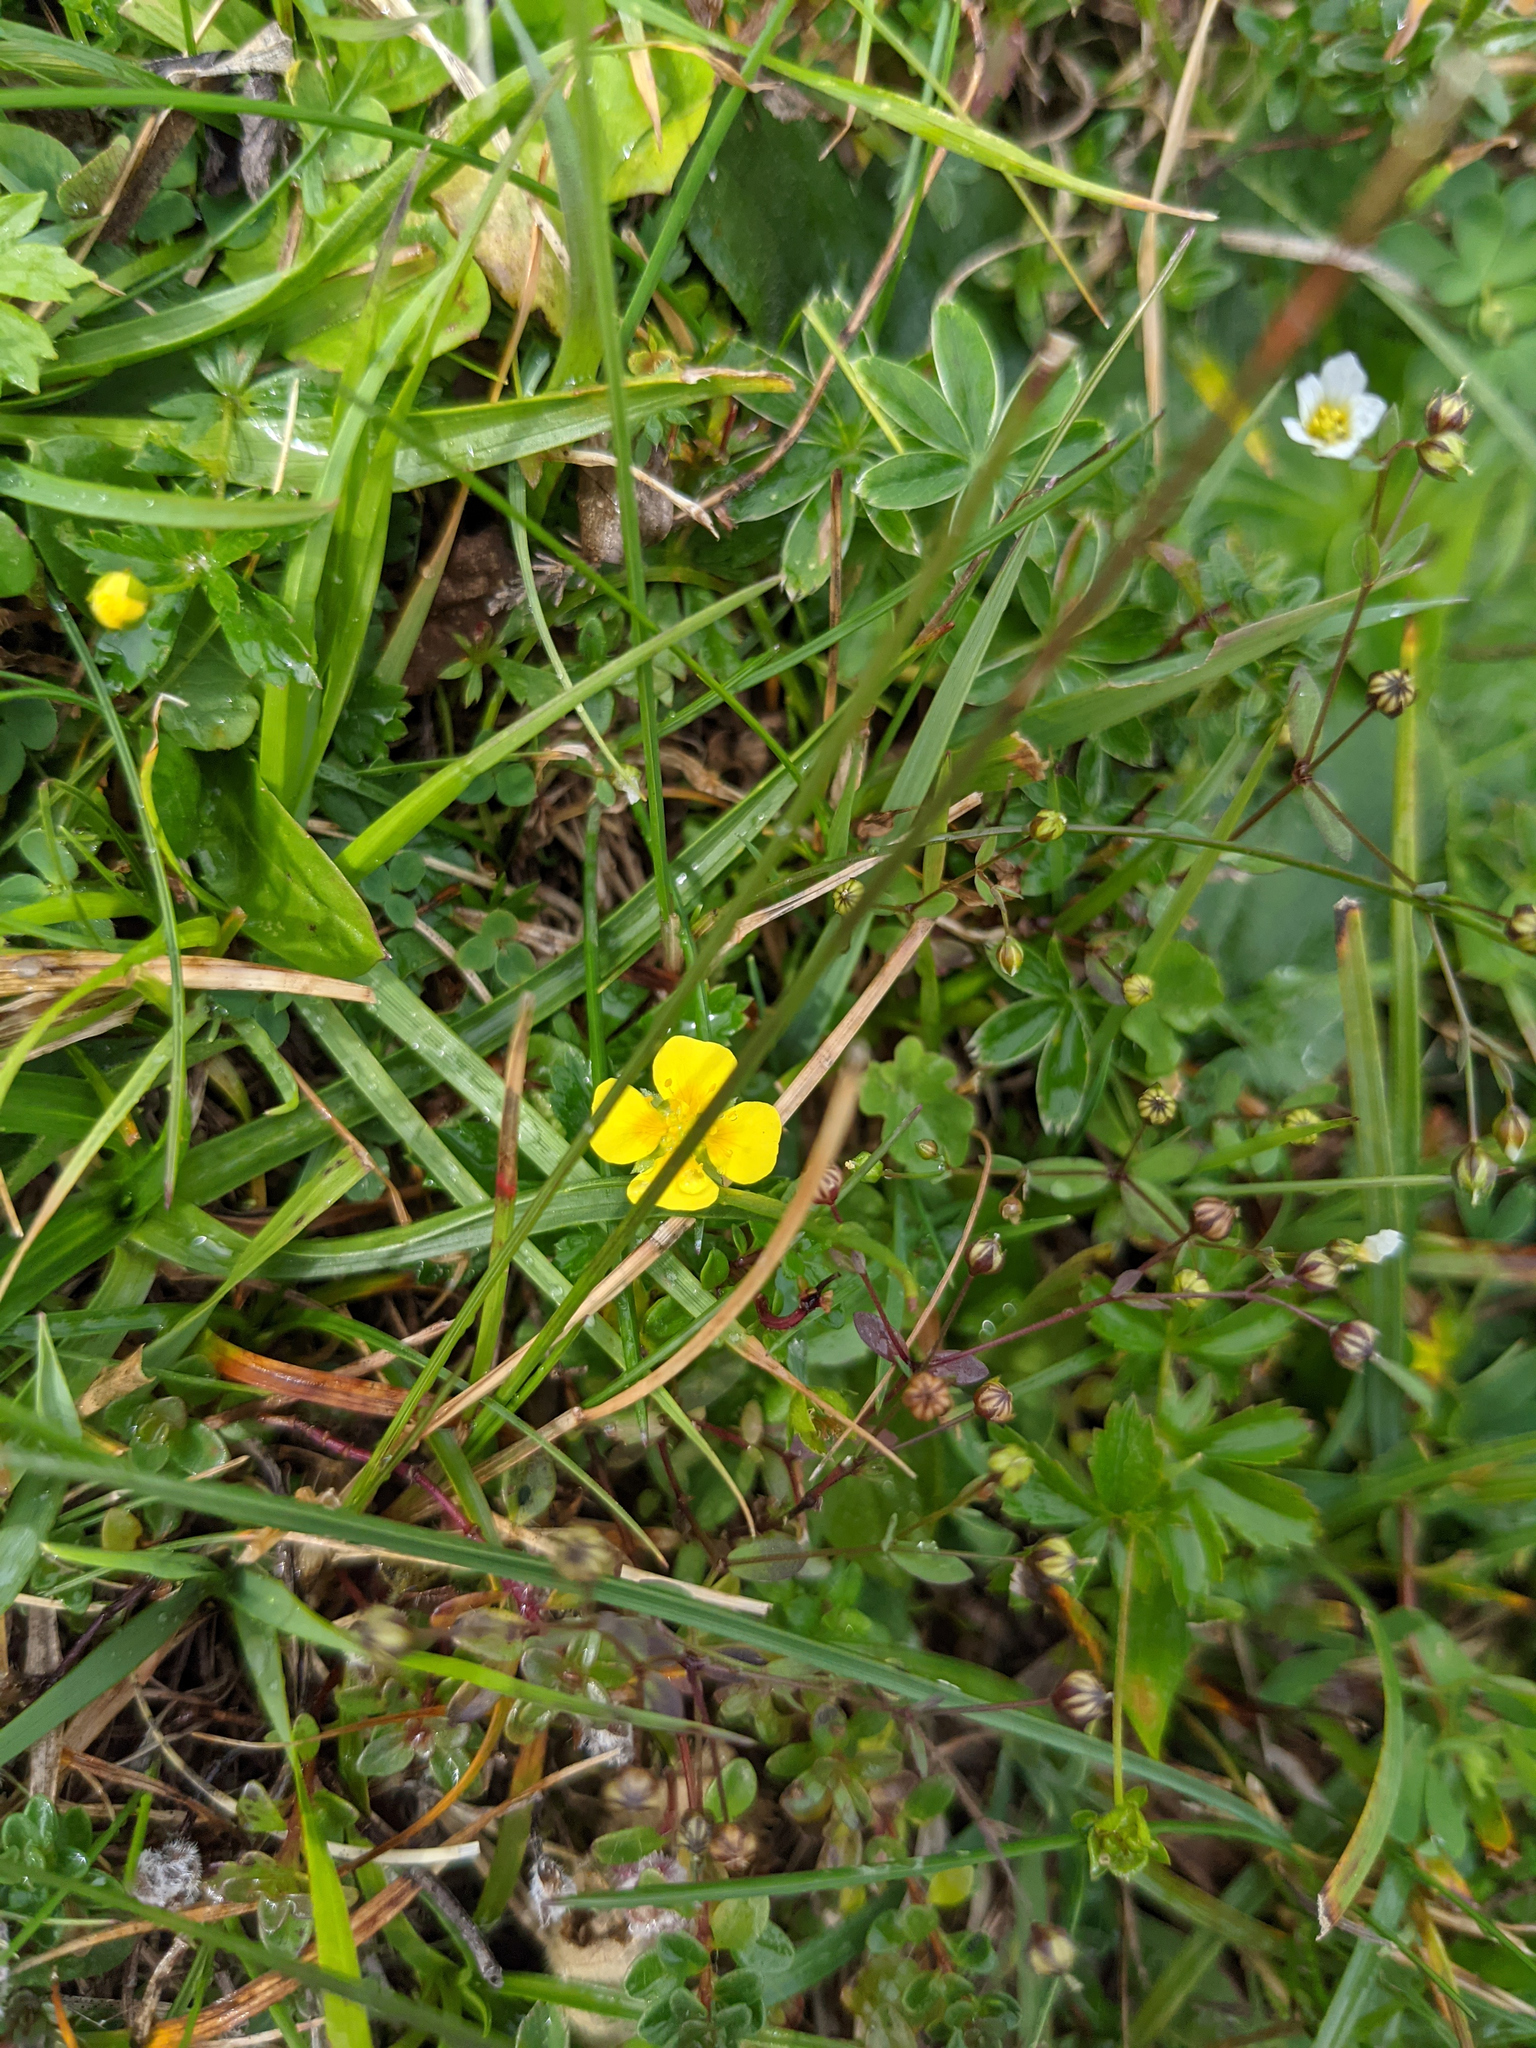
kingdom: Plantae
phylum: Tracheophyta
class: Magnoliopsida
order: Rosales
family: Rosaceae
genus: Potentilla
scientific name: Potentilla erecta
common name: Tormentil
